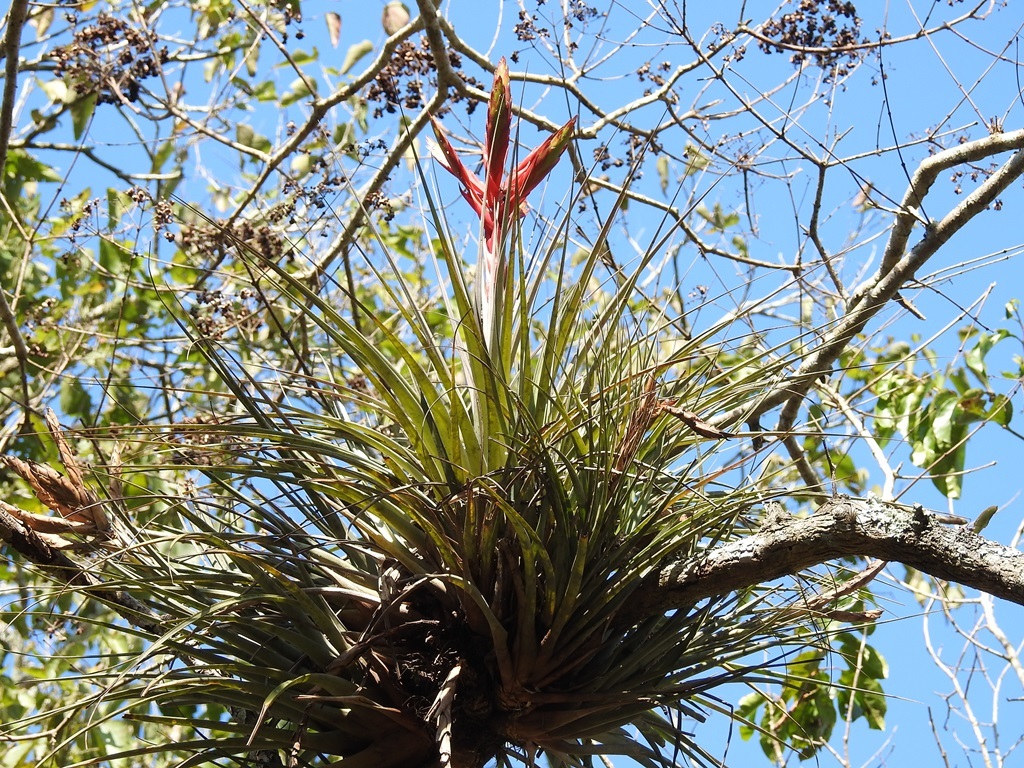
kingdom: Plantae
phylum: Tracheophyta
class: Liliopsida
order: Poales
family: Bromeliaceae
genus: Tillandsia
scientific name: Tillandsia fasciculata
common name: Giant airplant
